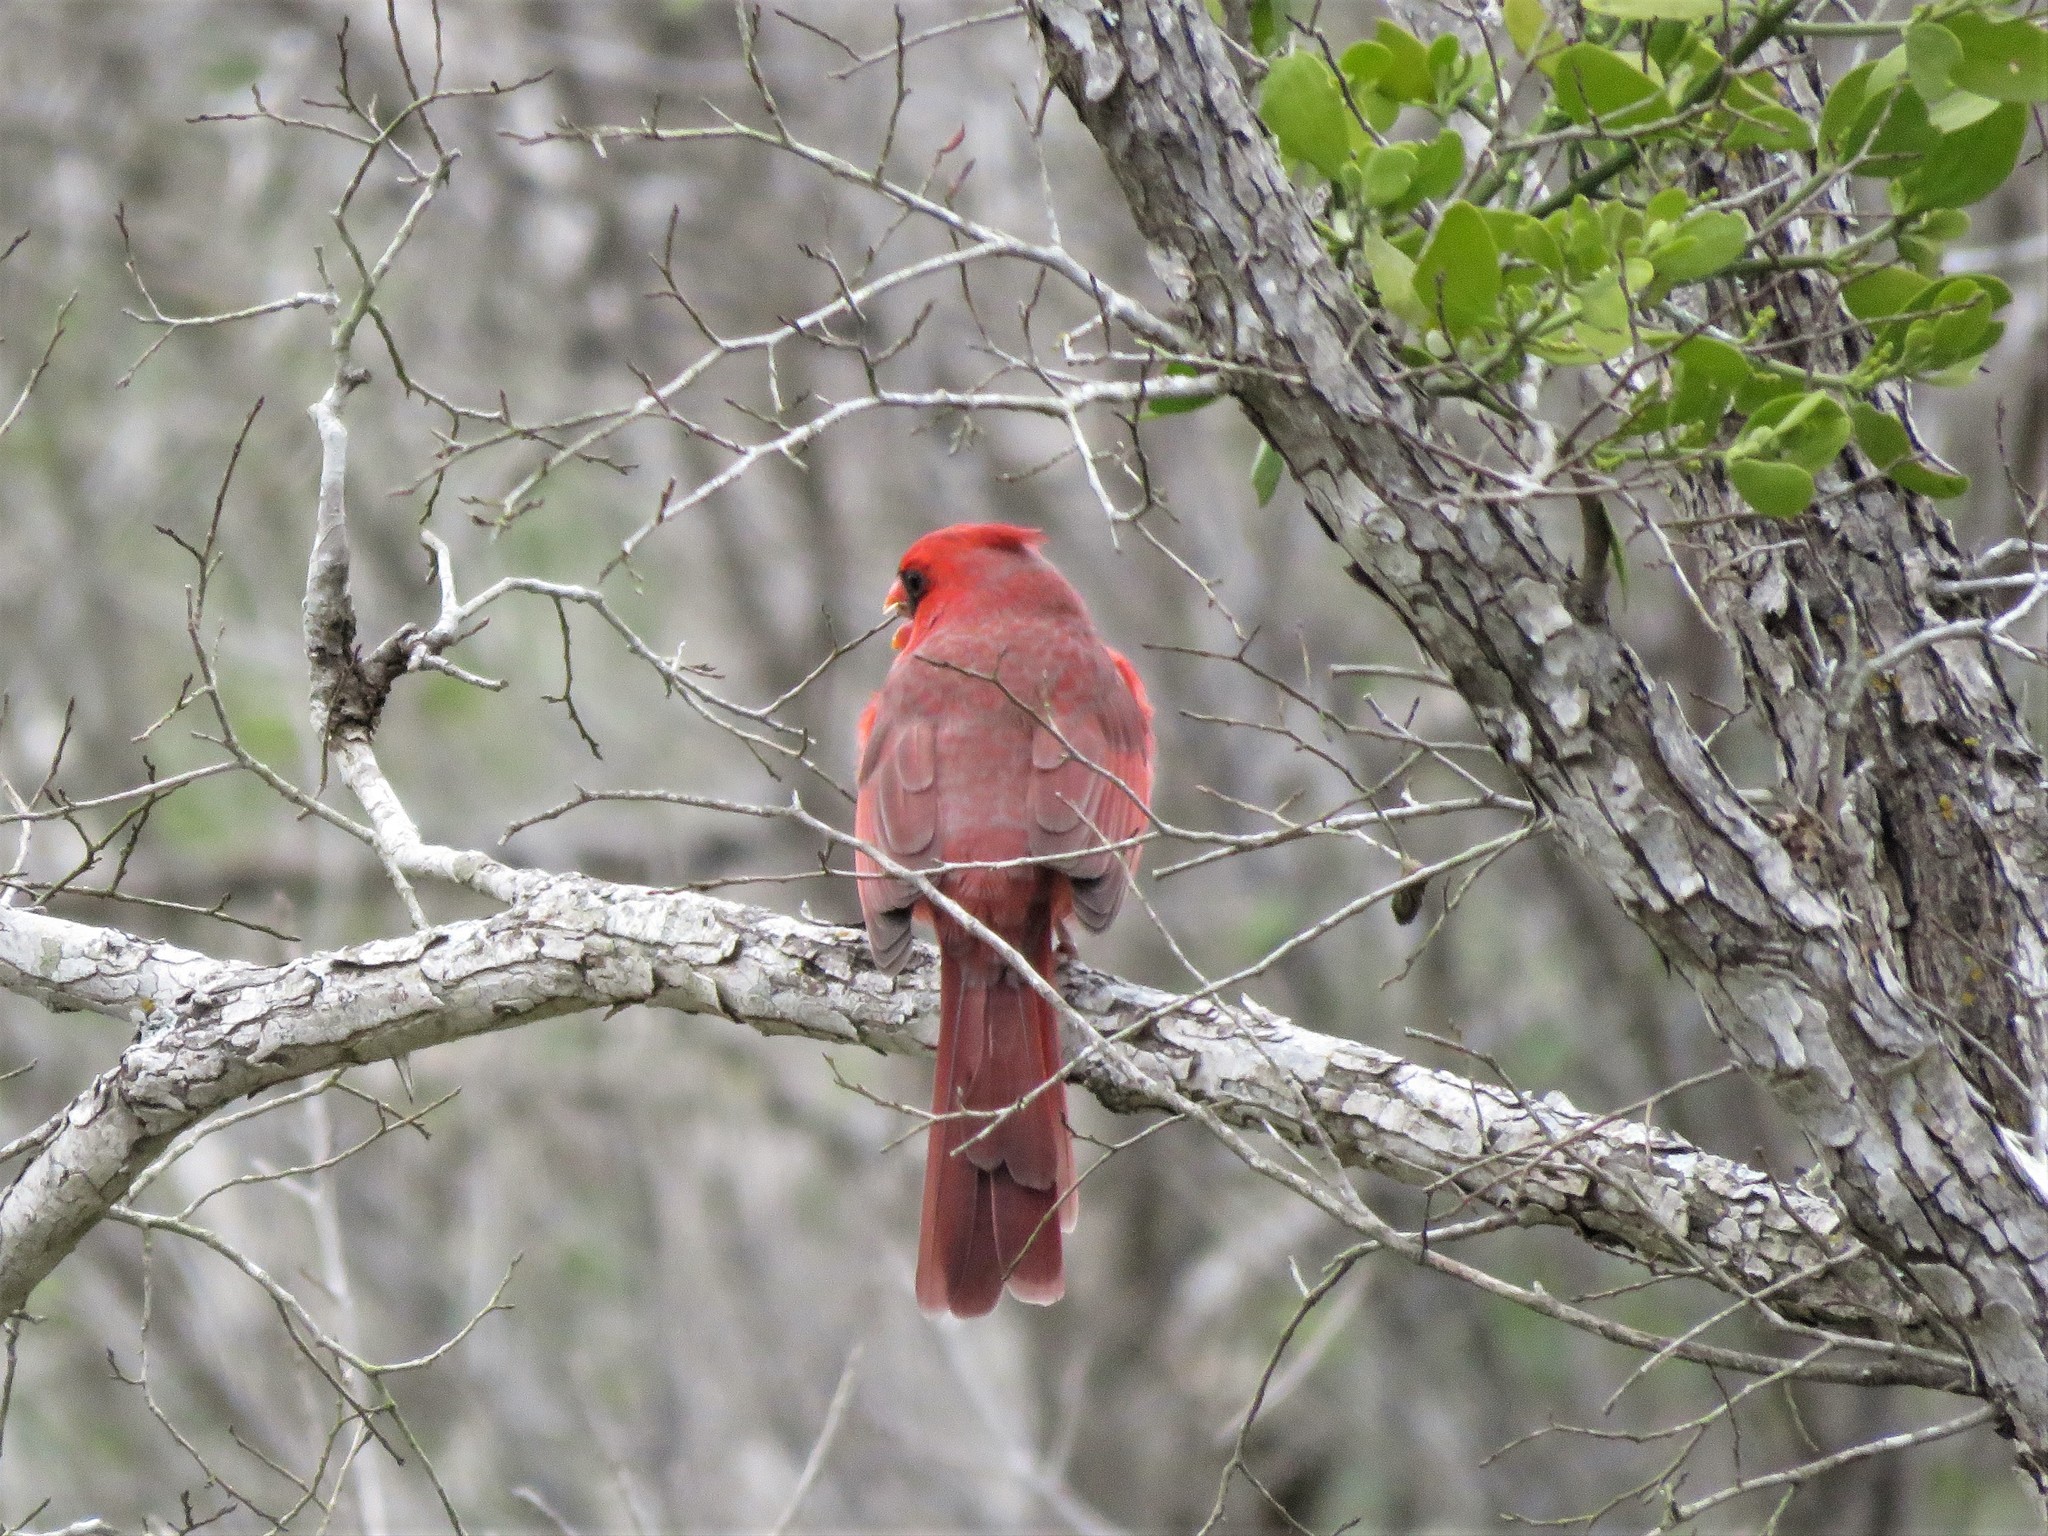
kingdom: Animalia
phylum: Chordata
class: Aves
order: Passeriformes
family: Cardinalidae
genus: Cardinalis
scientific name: Cardinalis cardinalis
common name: Northern cardinal
